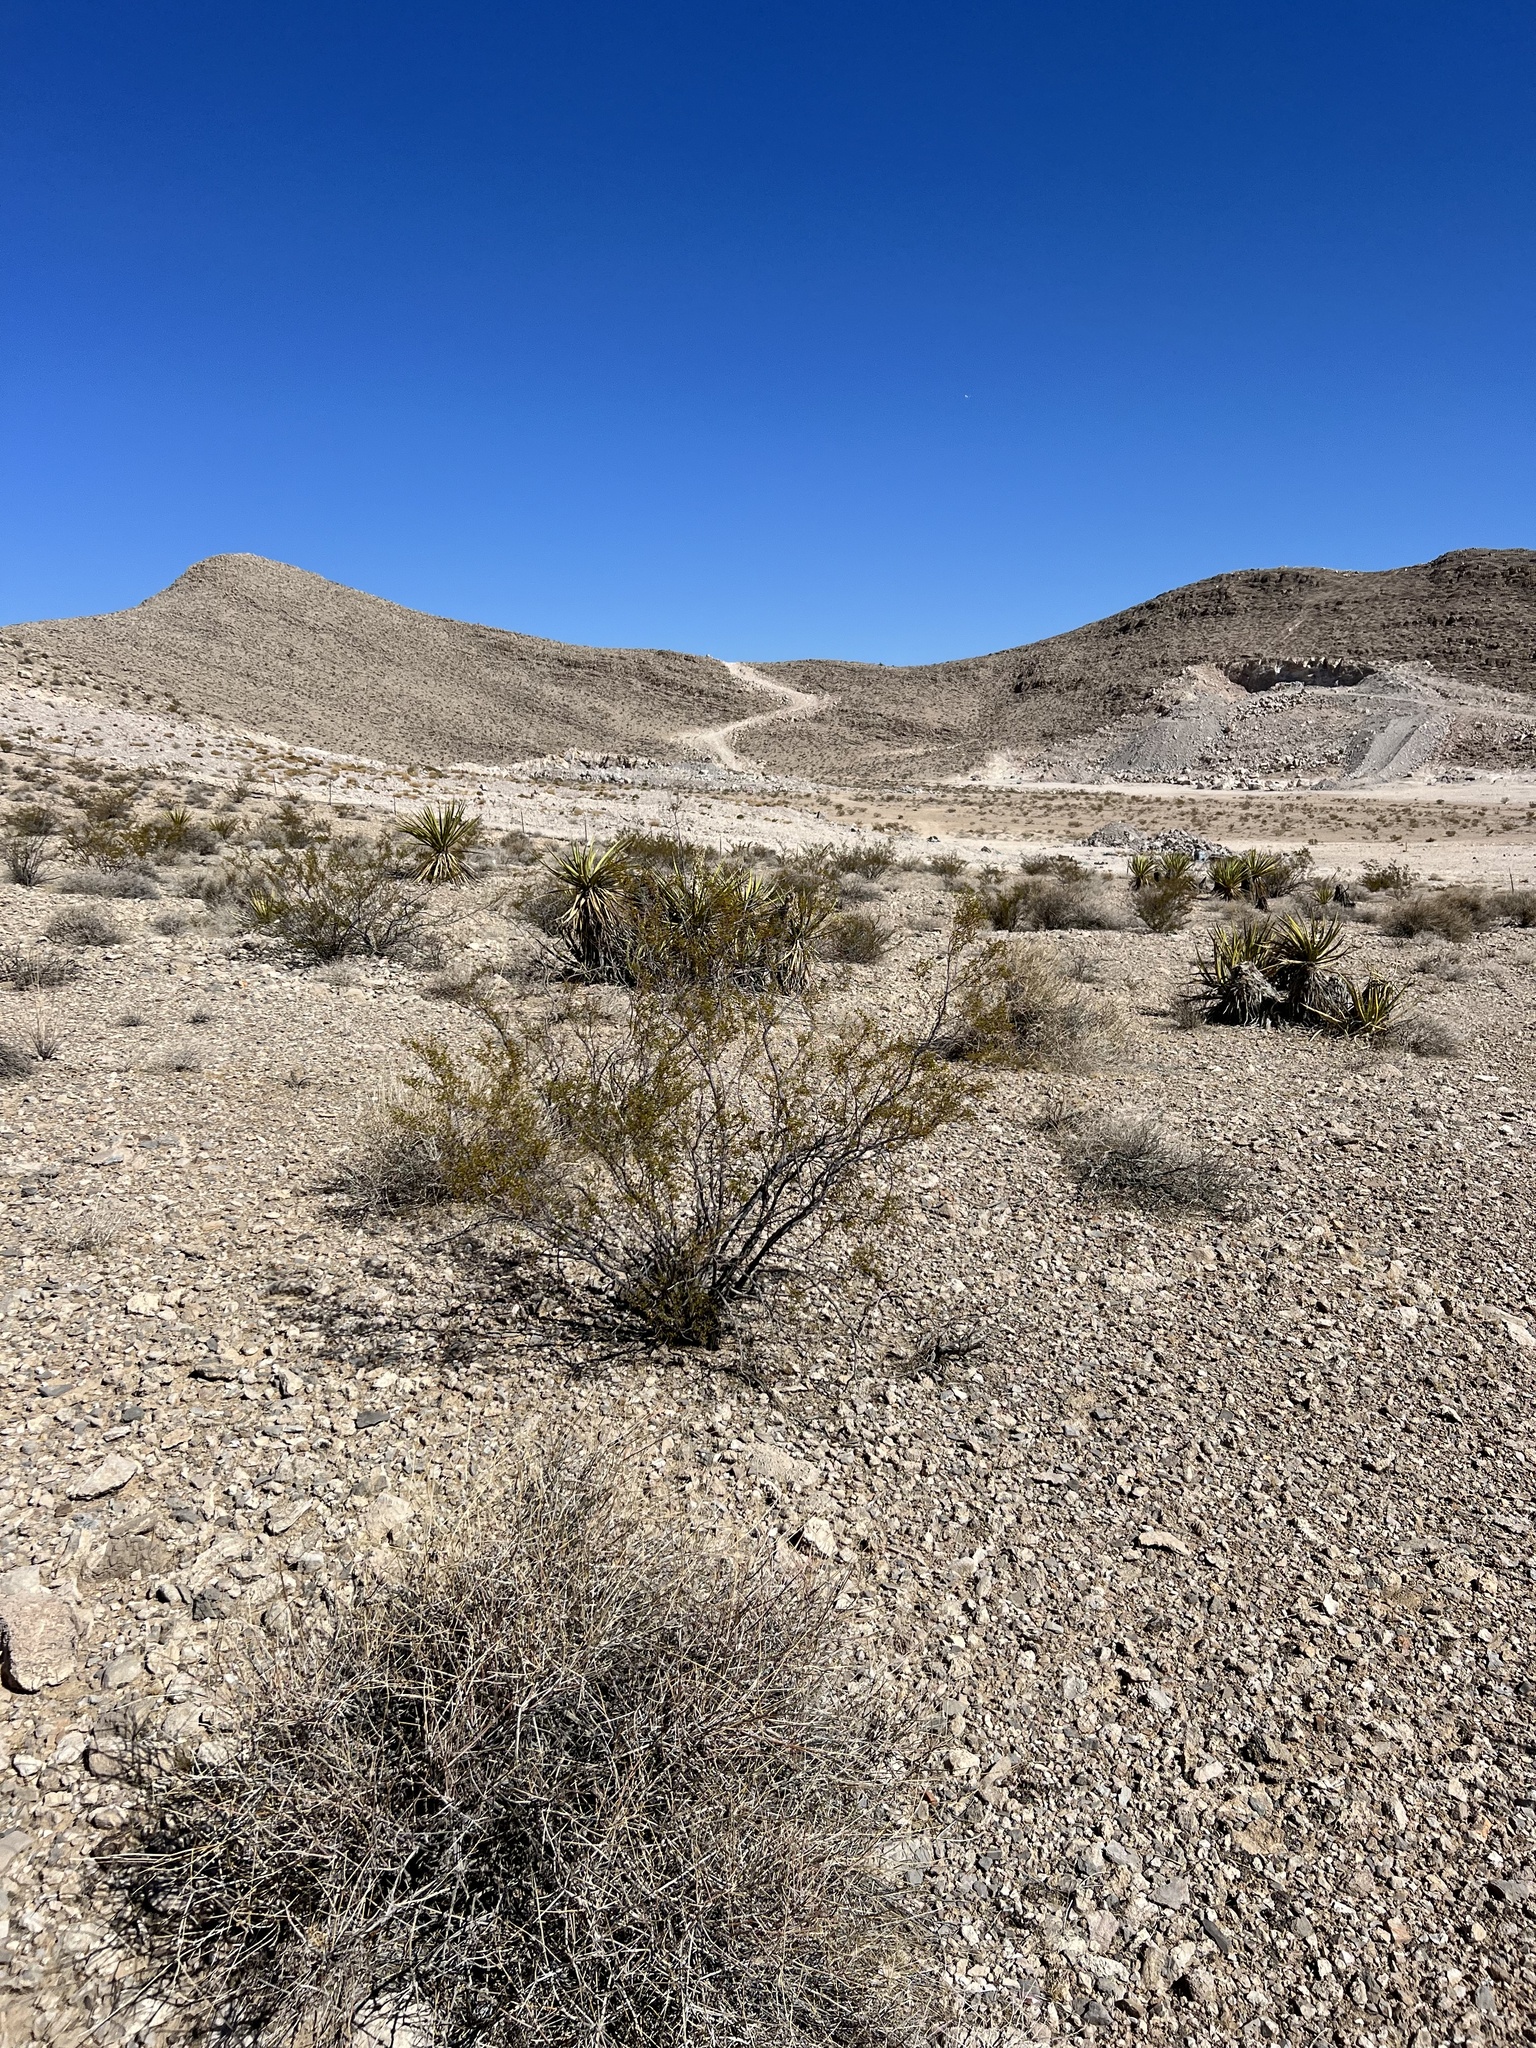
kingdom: Plantae
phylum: Tracheophyta
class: Magnoliopsida
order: Zygophyllales
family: Zygophyllaceae
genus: Larrea
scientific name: Larrea tridentata
